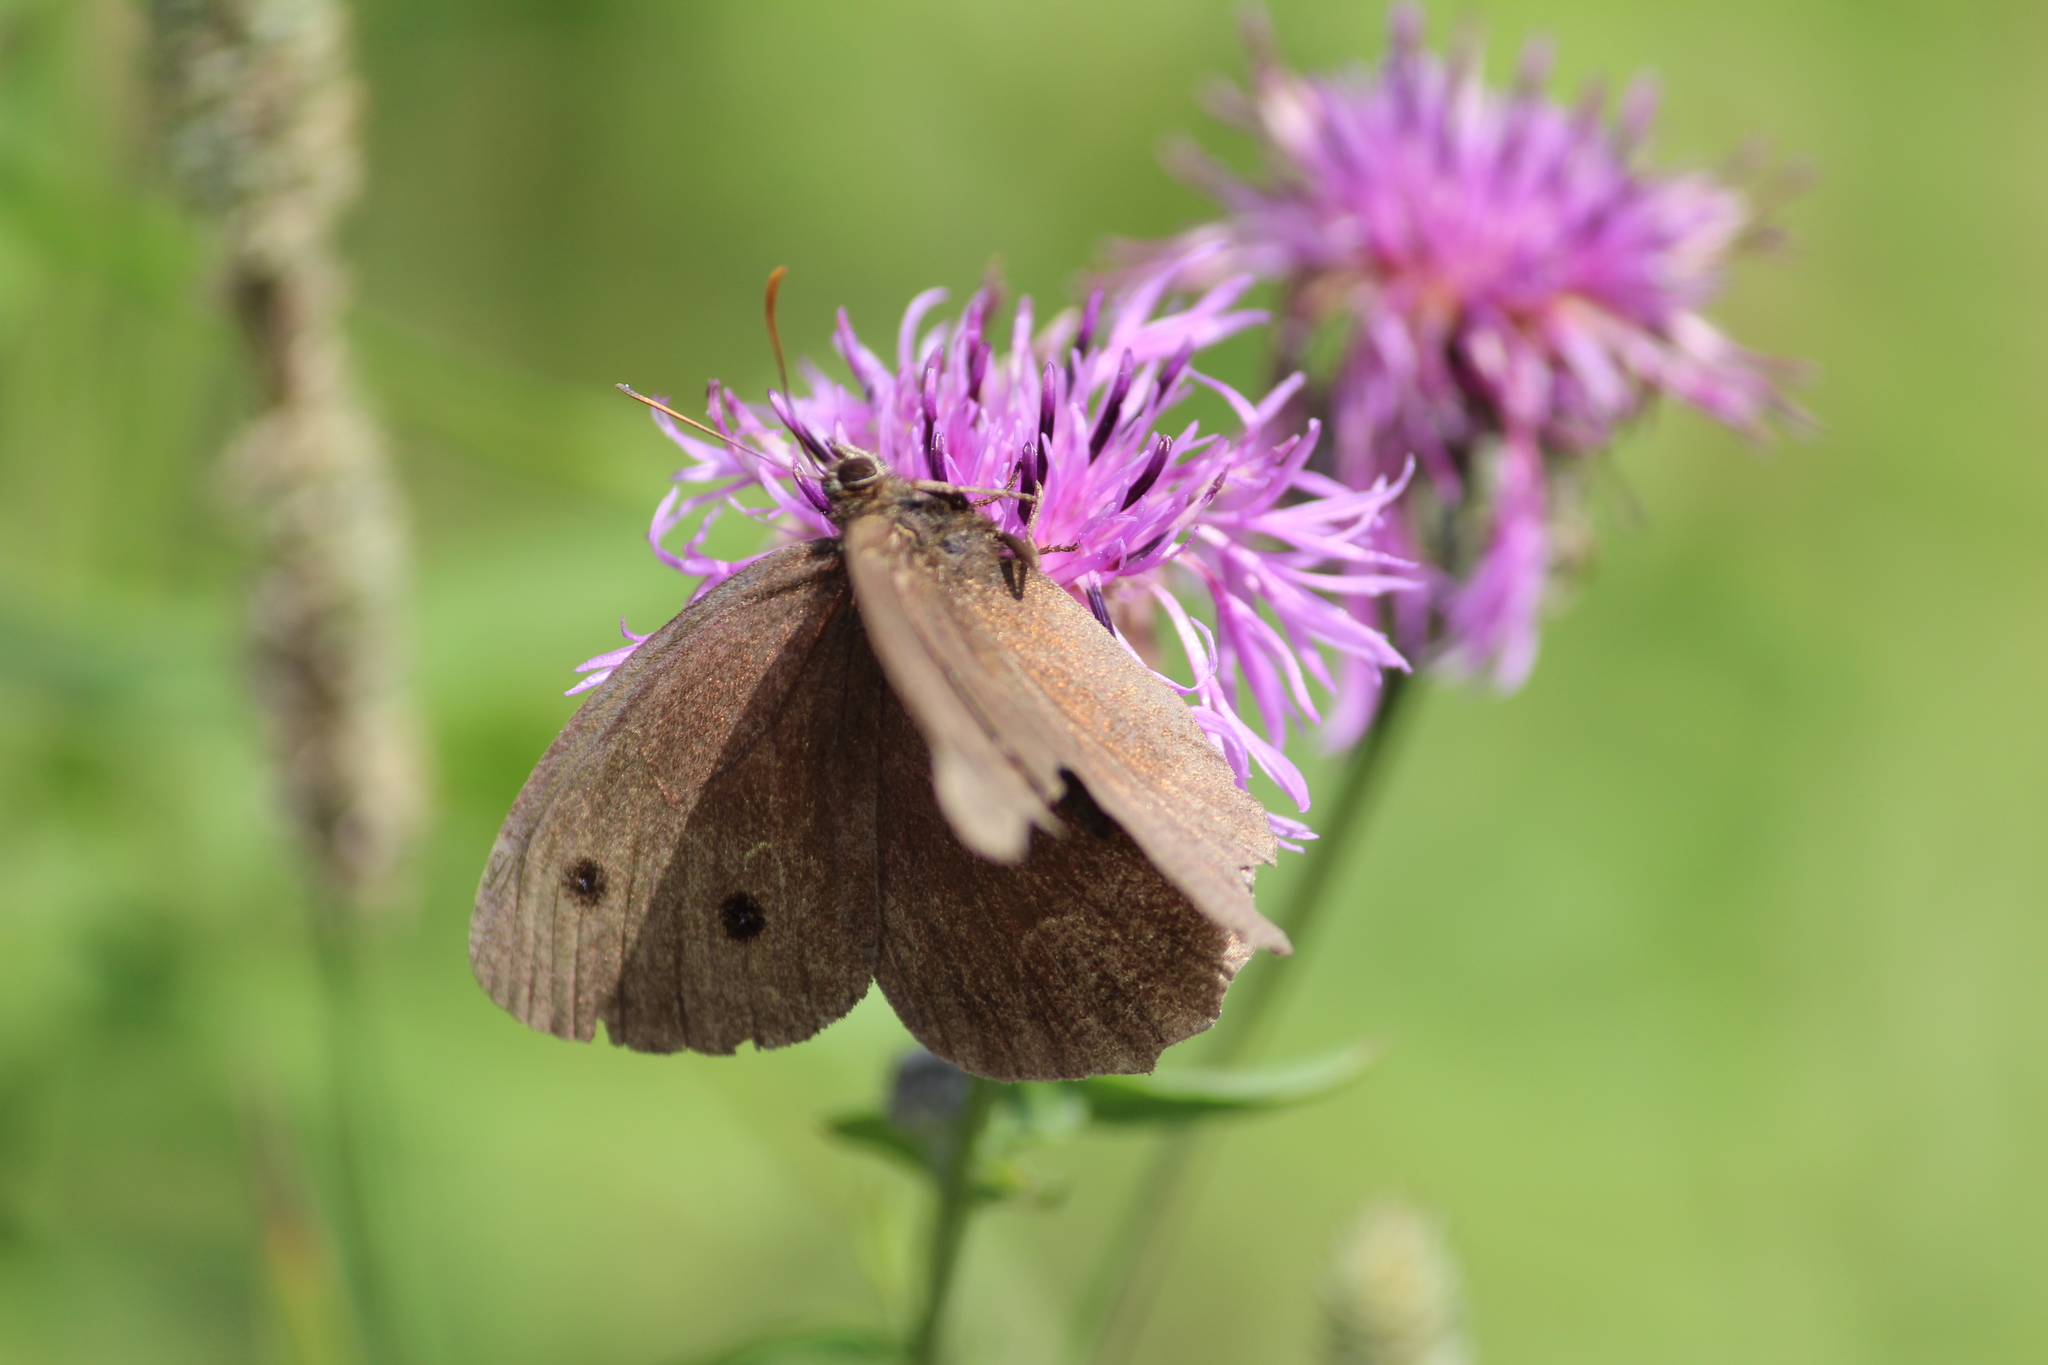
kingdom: Animalia
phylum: Arthropoda
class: Insecta
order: Lepidoptera
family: Nymphalidae
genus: Minois
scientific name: Minois dryas
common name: Dryad
